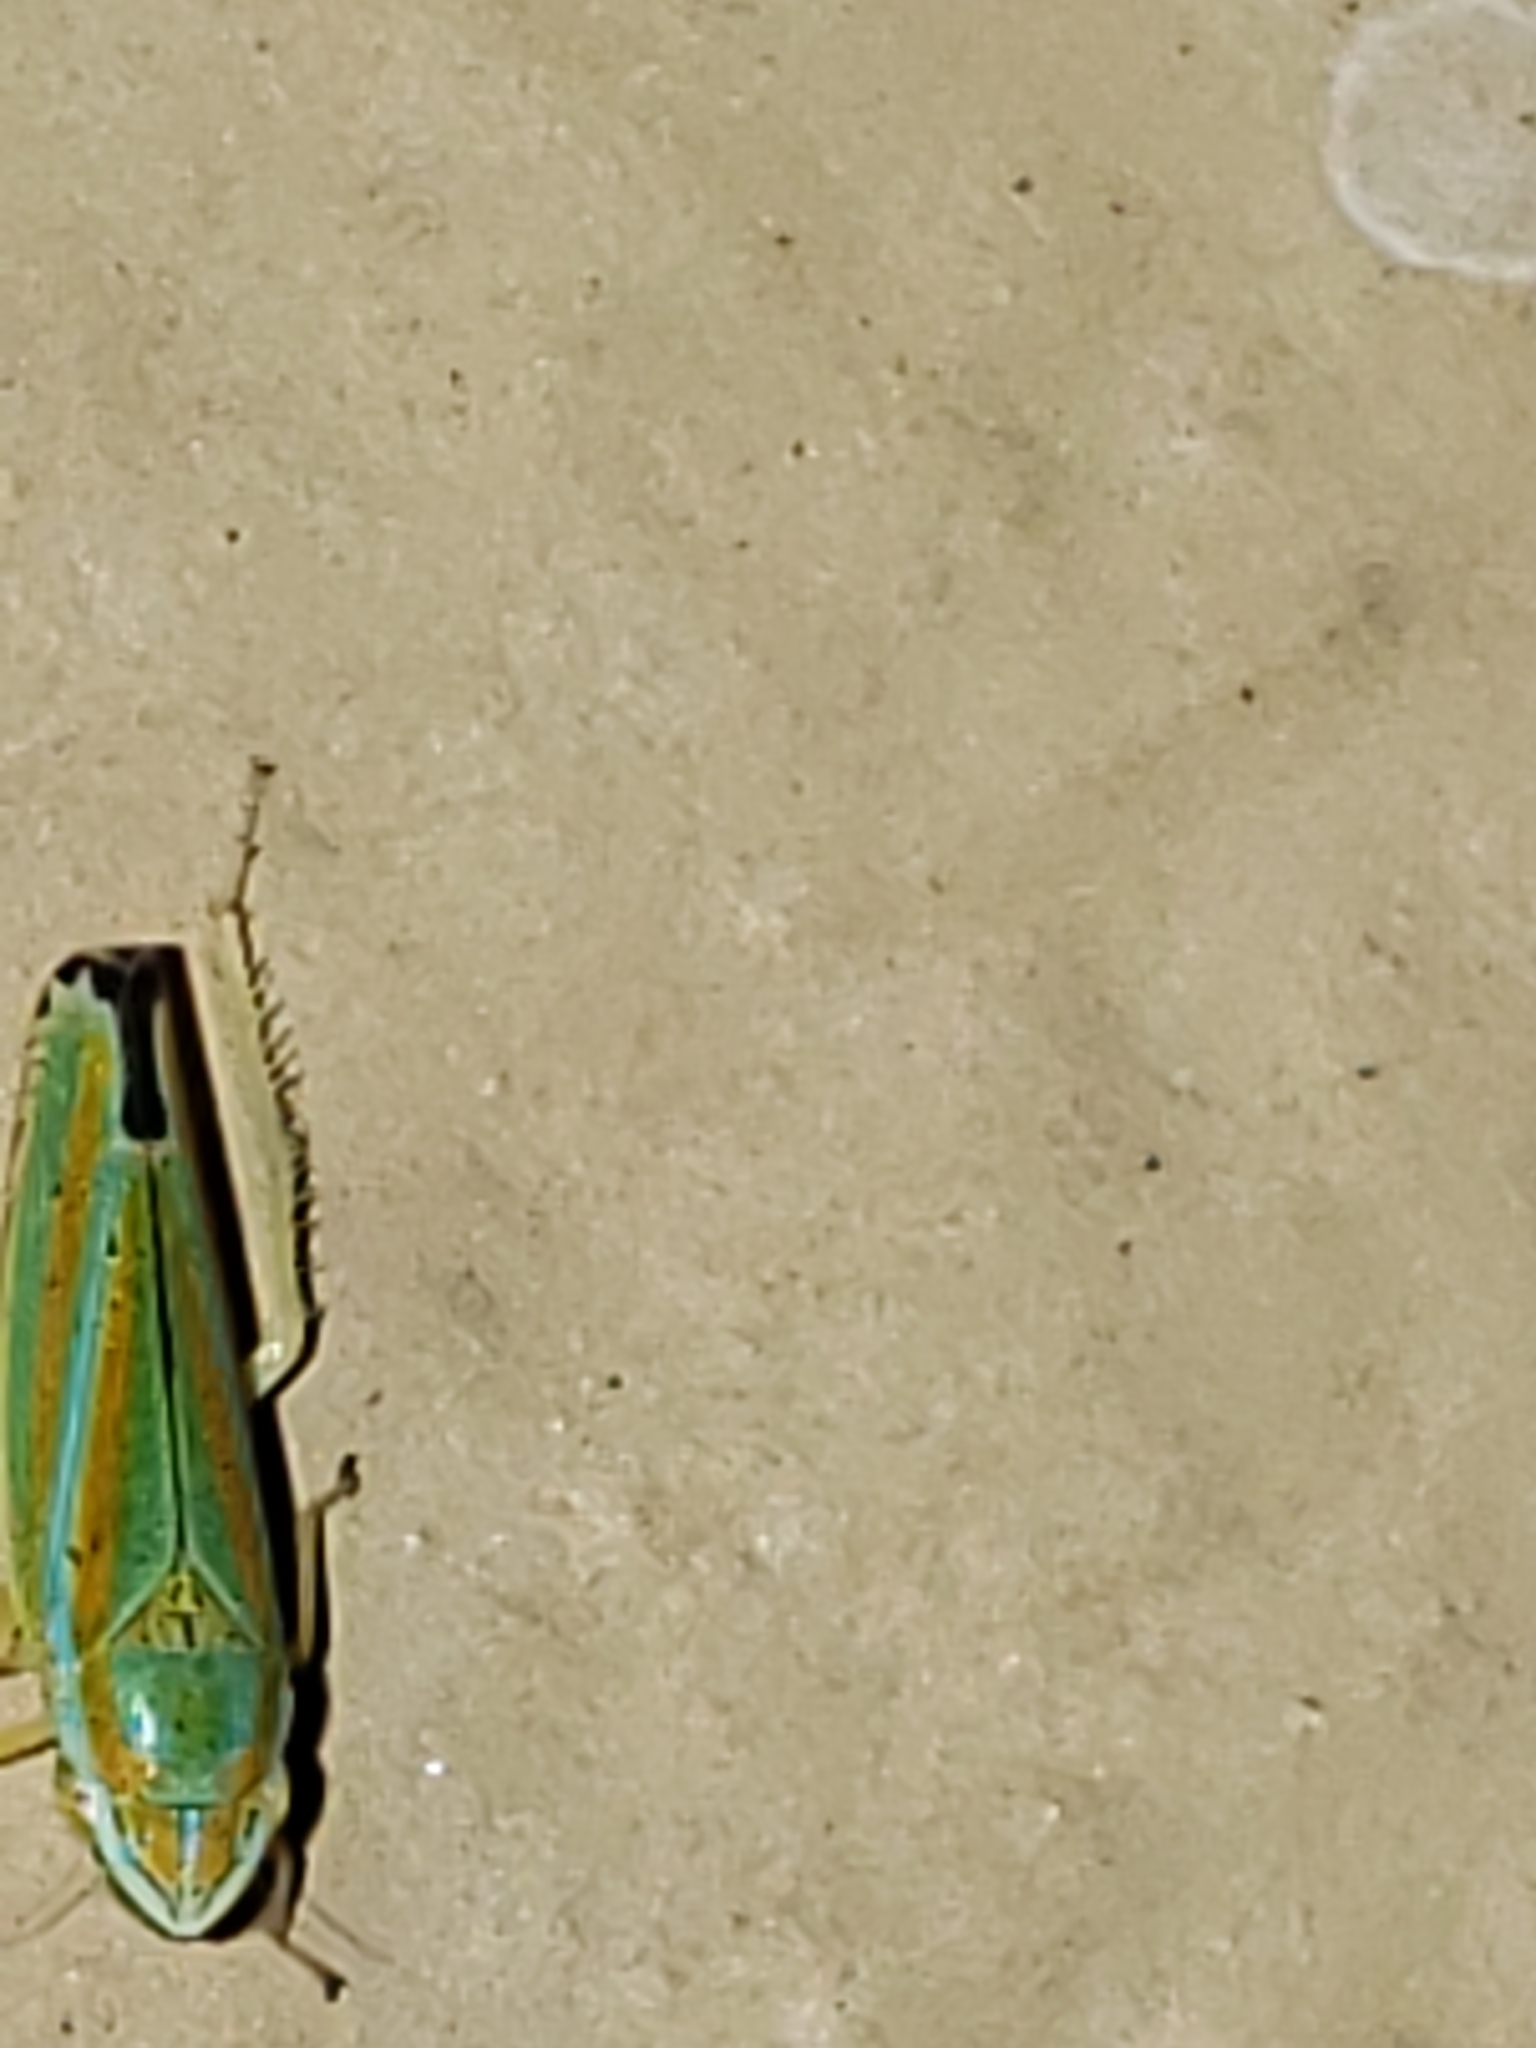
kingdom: Animalia
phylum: Arthropoda
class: Insecta
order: Hemiptera
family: Cicadellidae
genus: Graphocephala
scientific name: Graphocephala versuta
